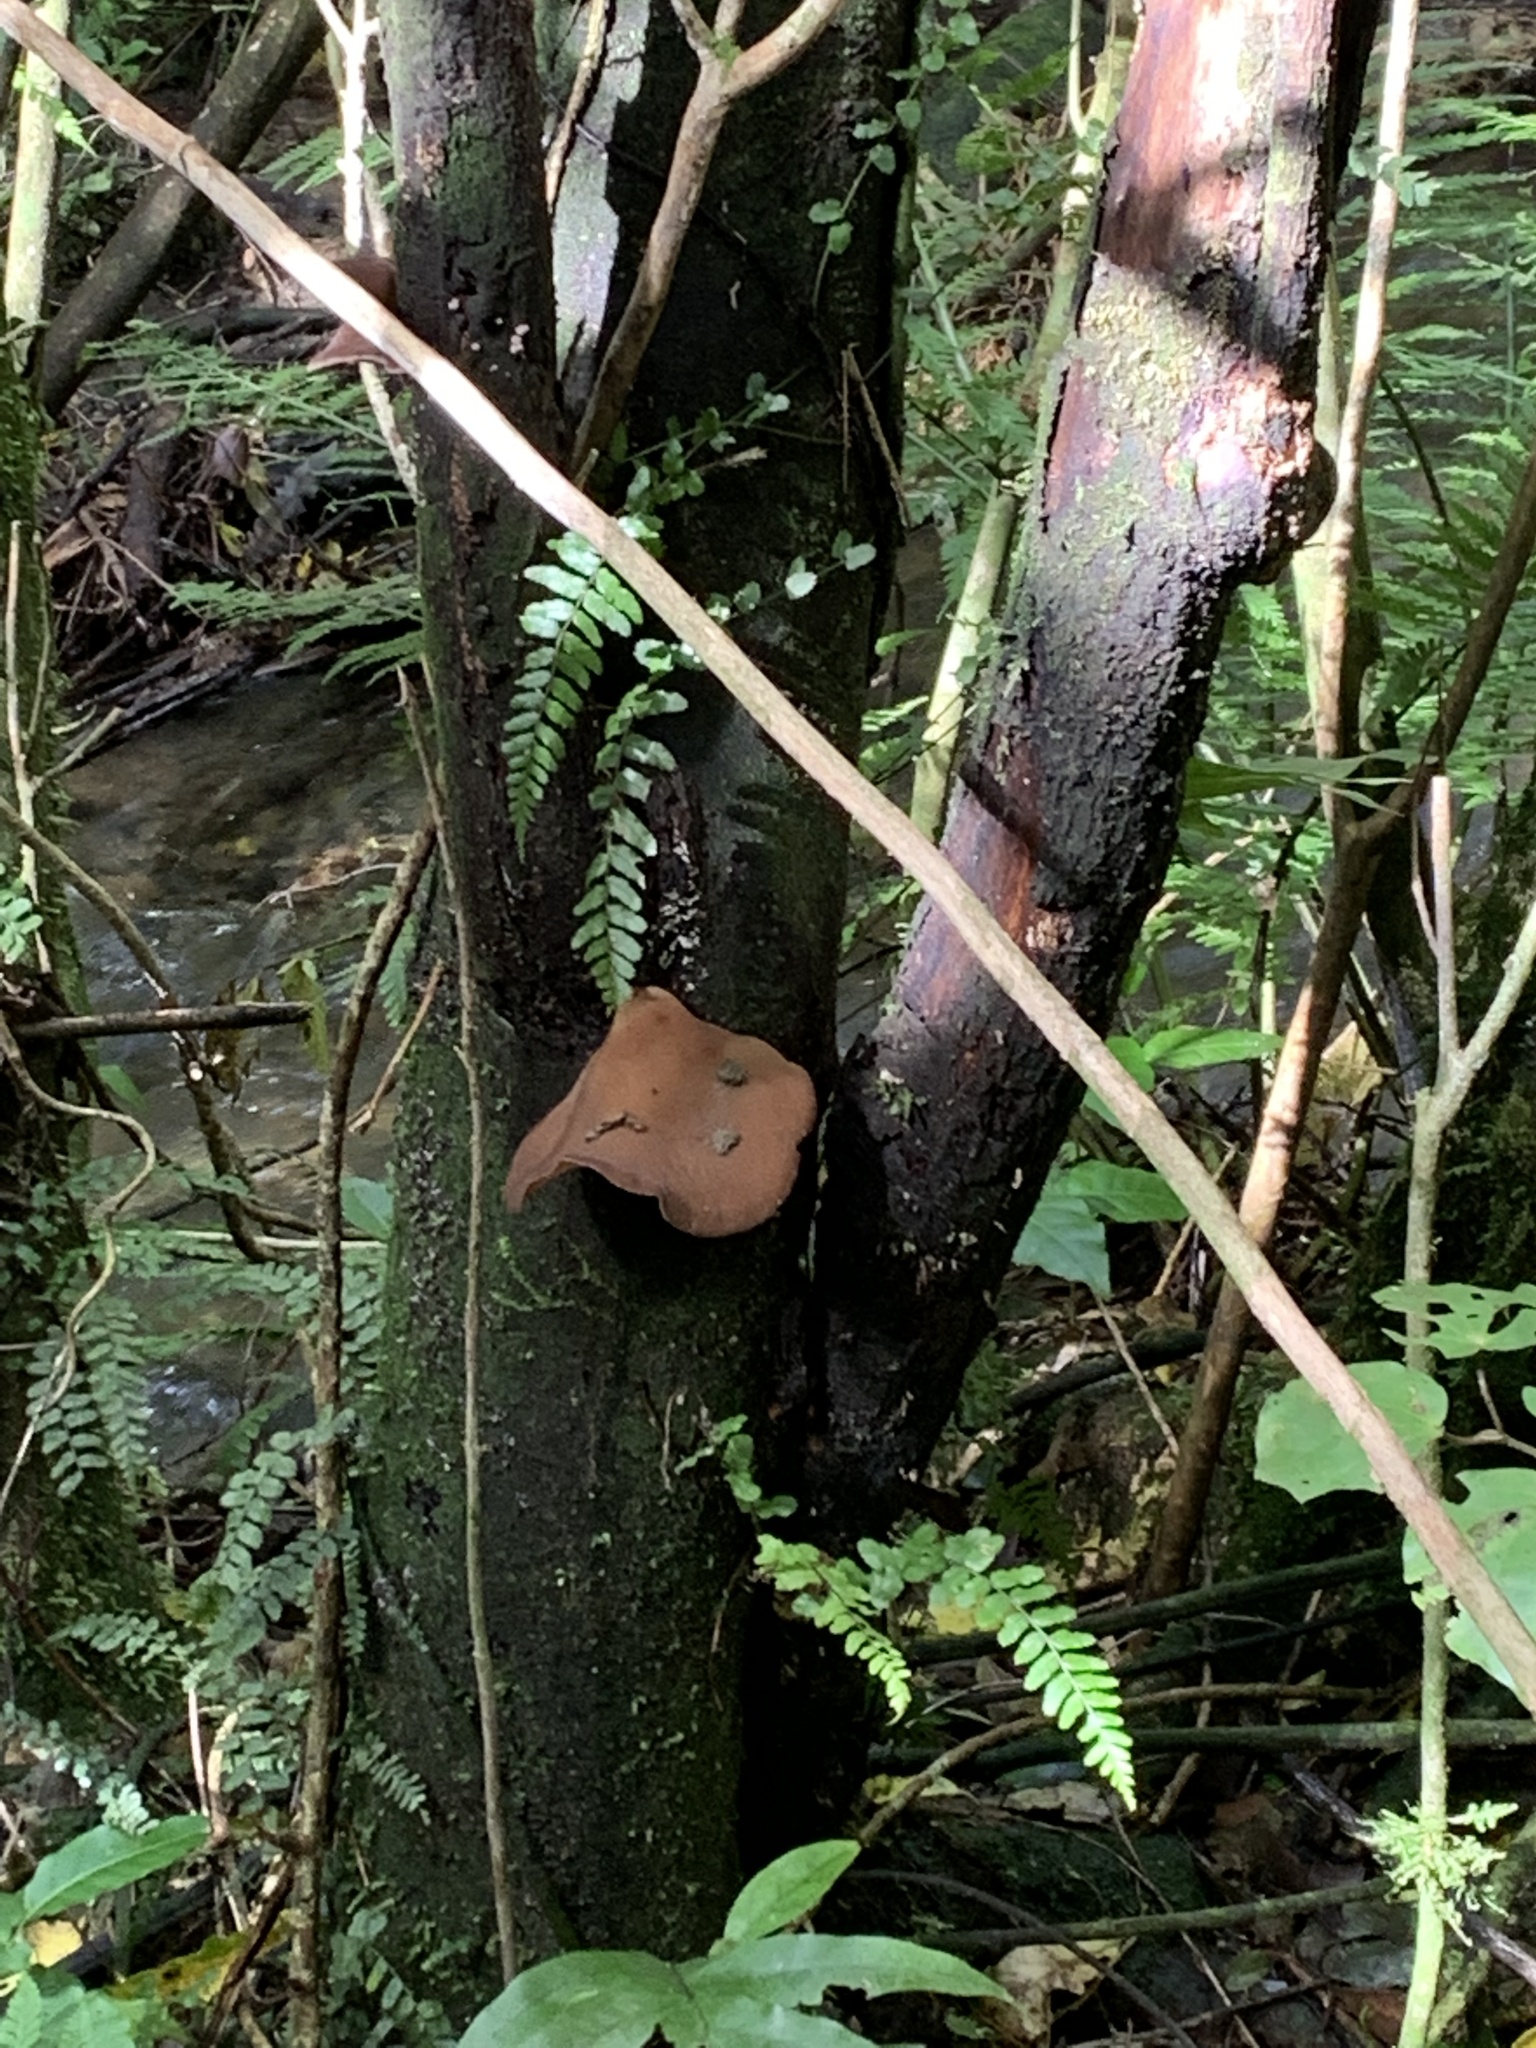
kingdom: Fungi
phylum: Basidiomycota
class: Agaricomycetes
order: Auriculariales
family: Auriculariaceae
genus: Auricularia
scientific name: Auricularia cornea
